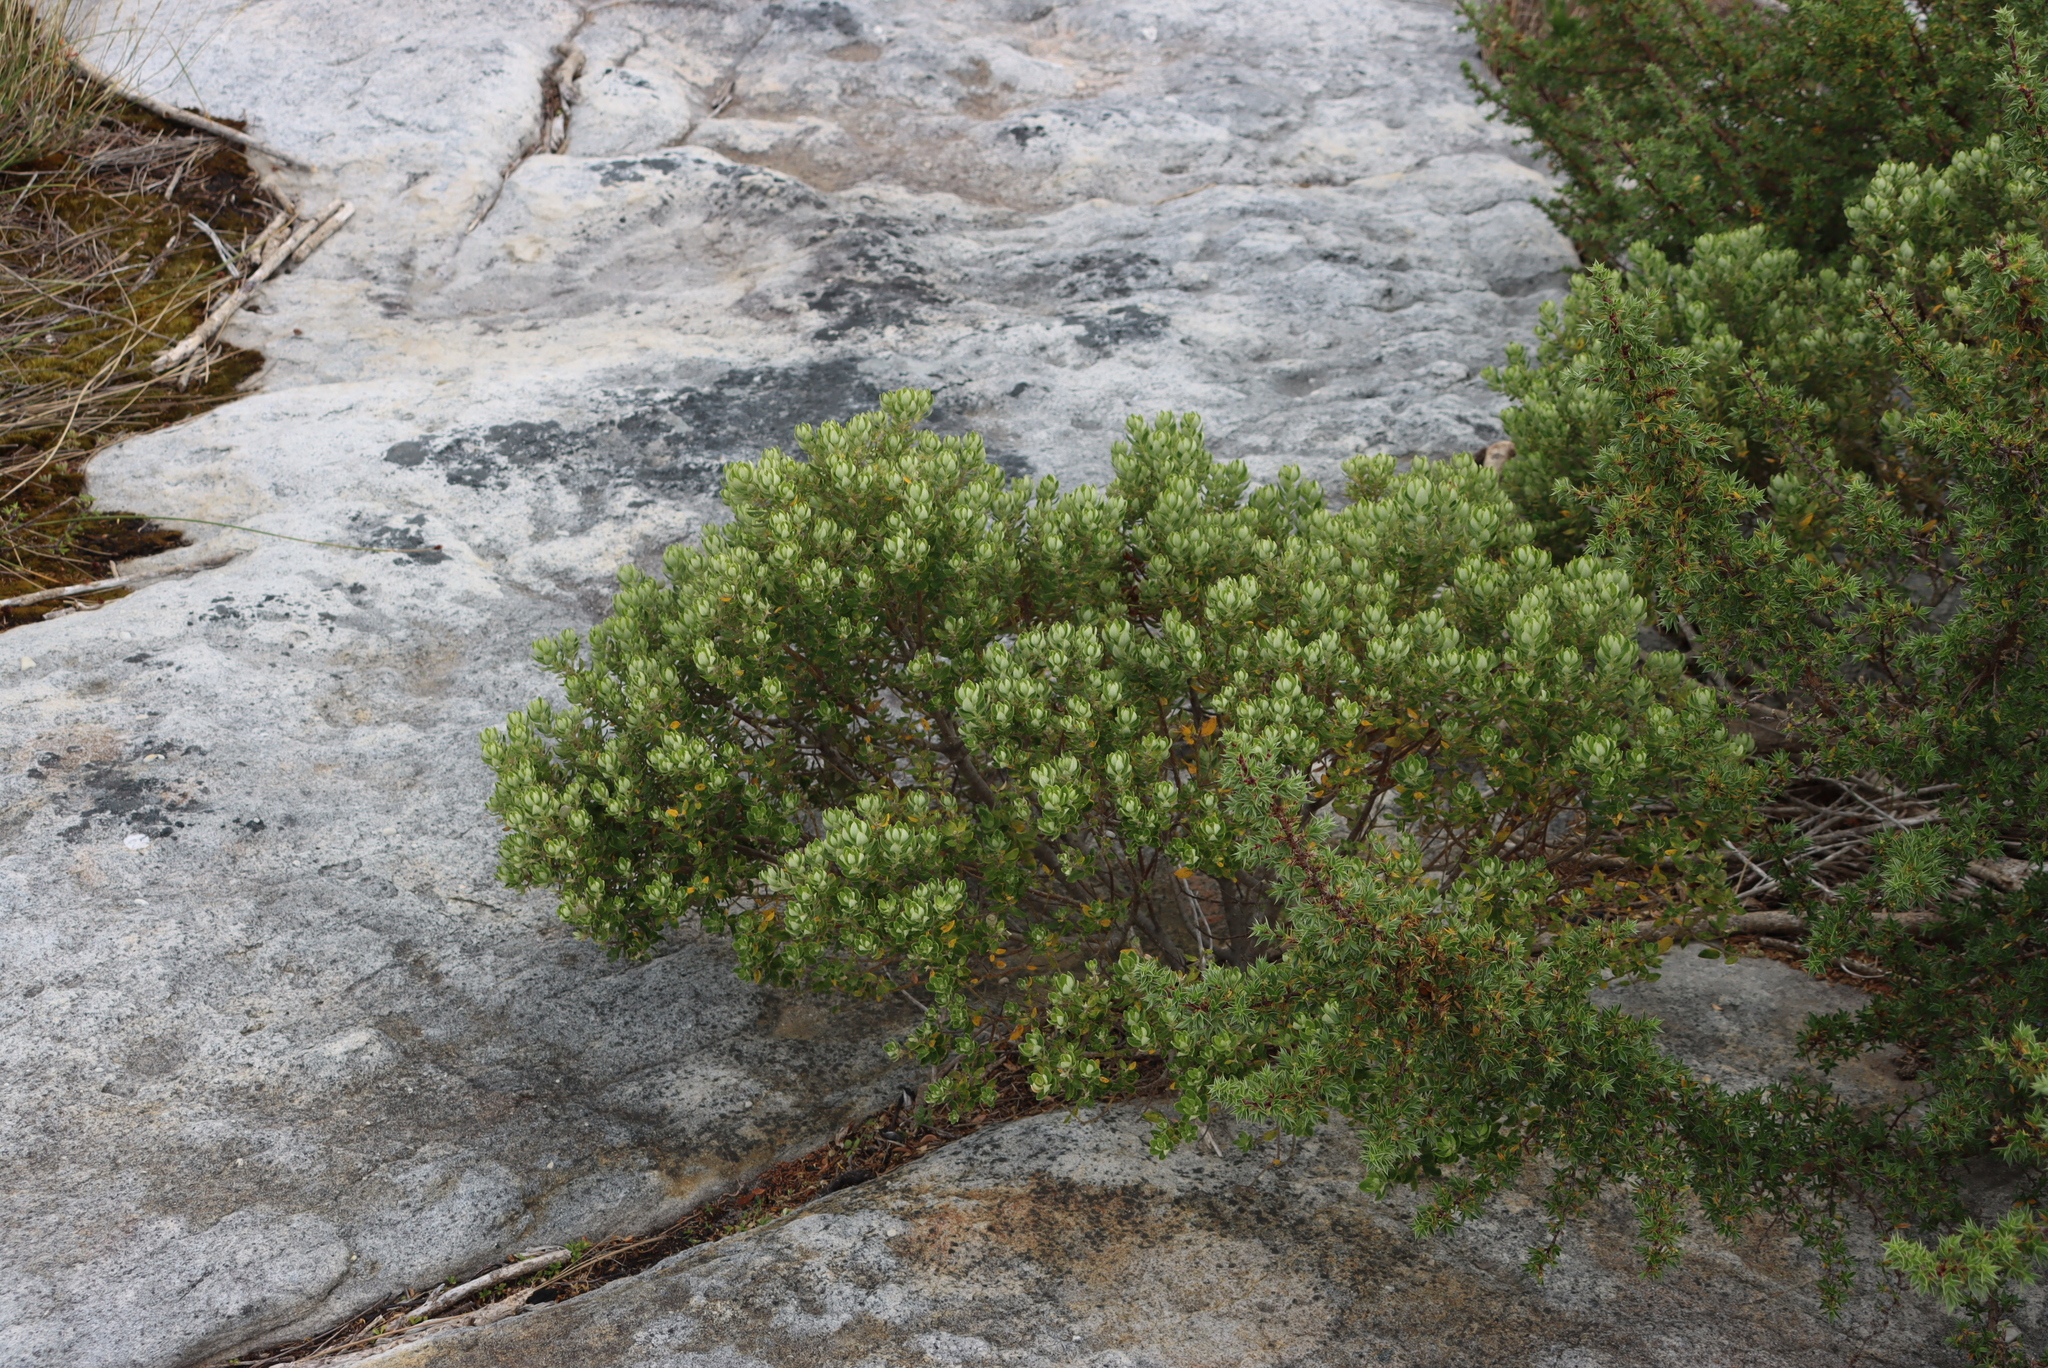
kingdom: Plantae
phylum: Tracheophyta
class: Magnoliopsida
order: Rosales
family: Rhamnaceae
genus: Phylica
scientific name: Phylica buxifolia
